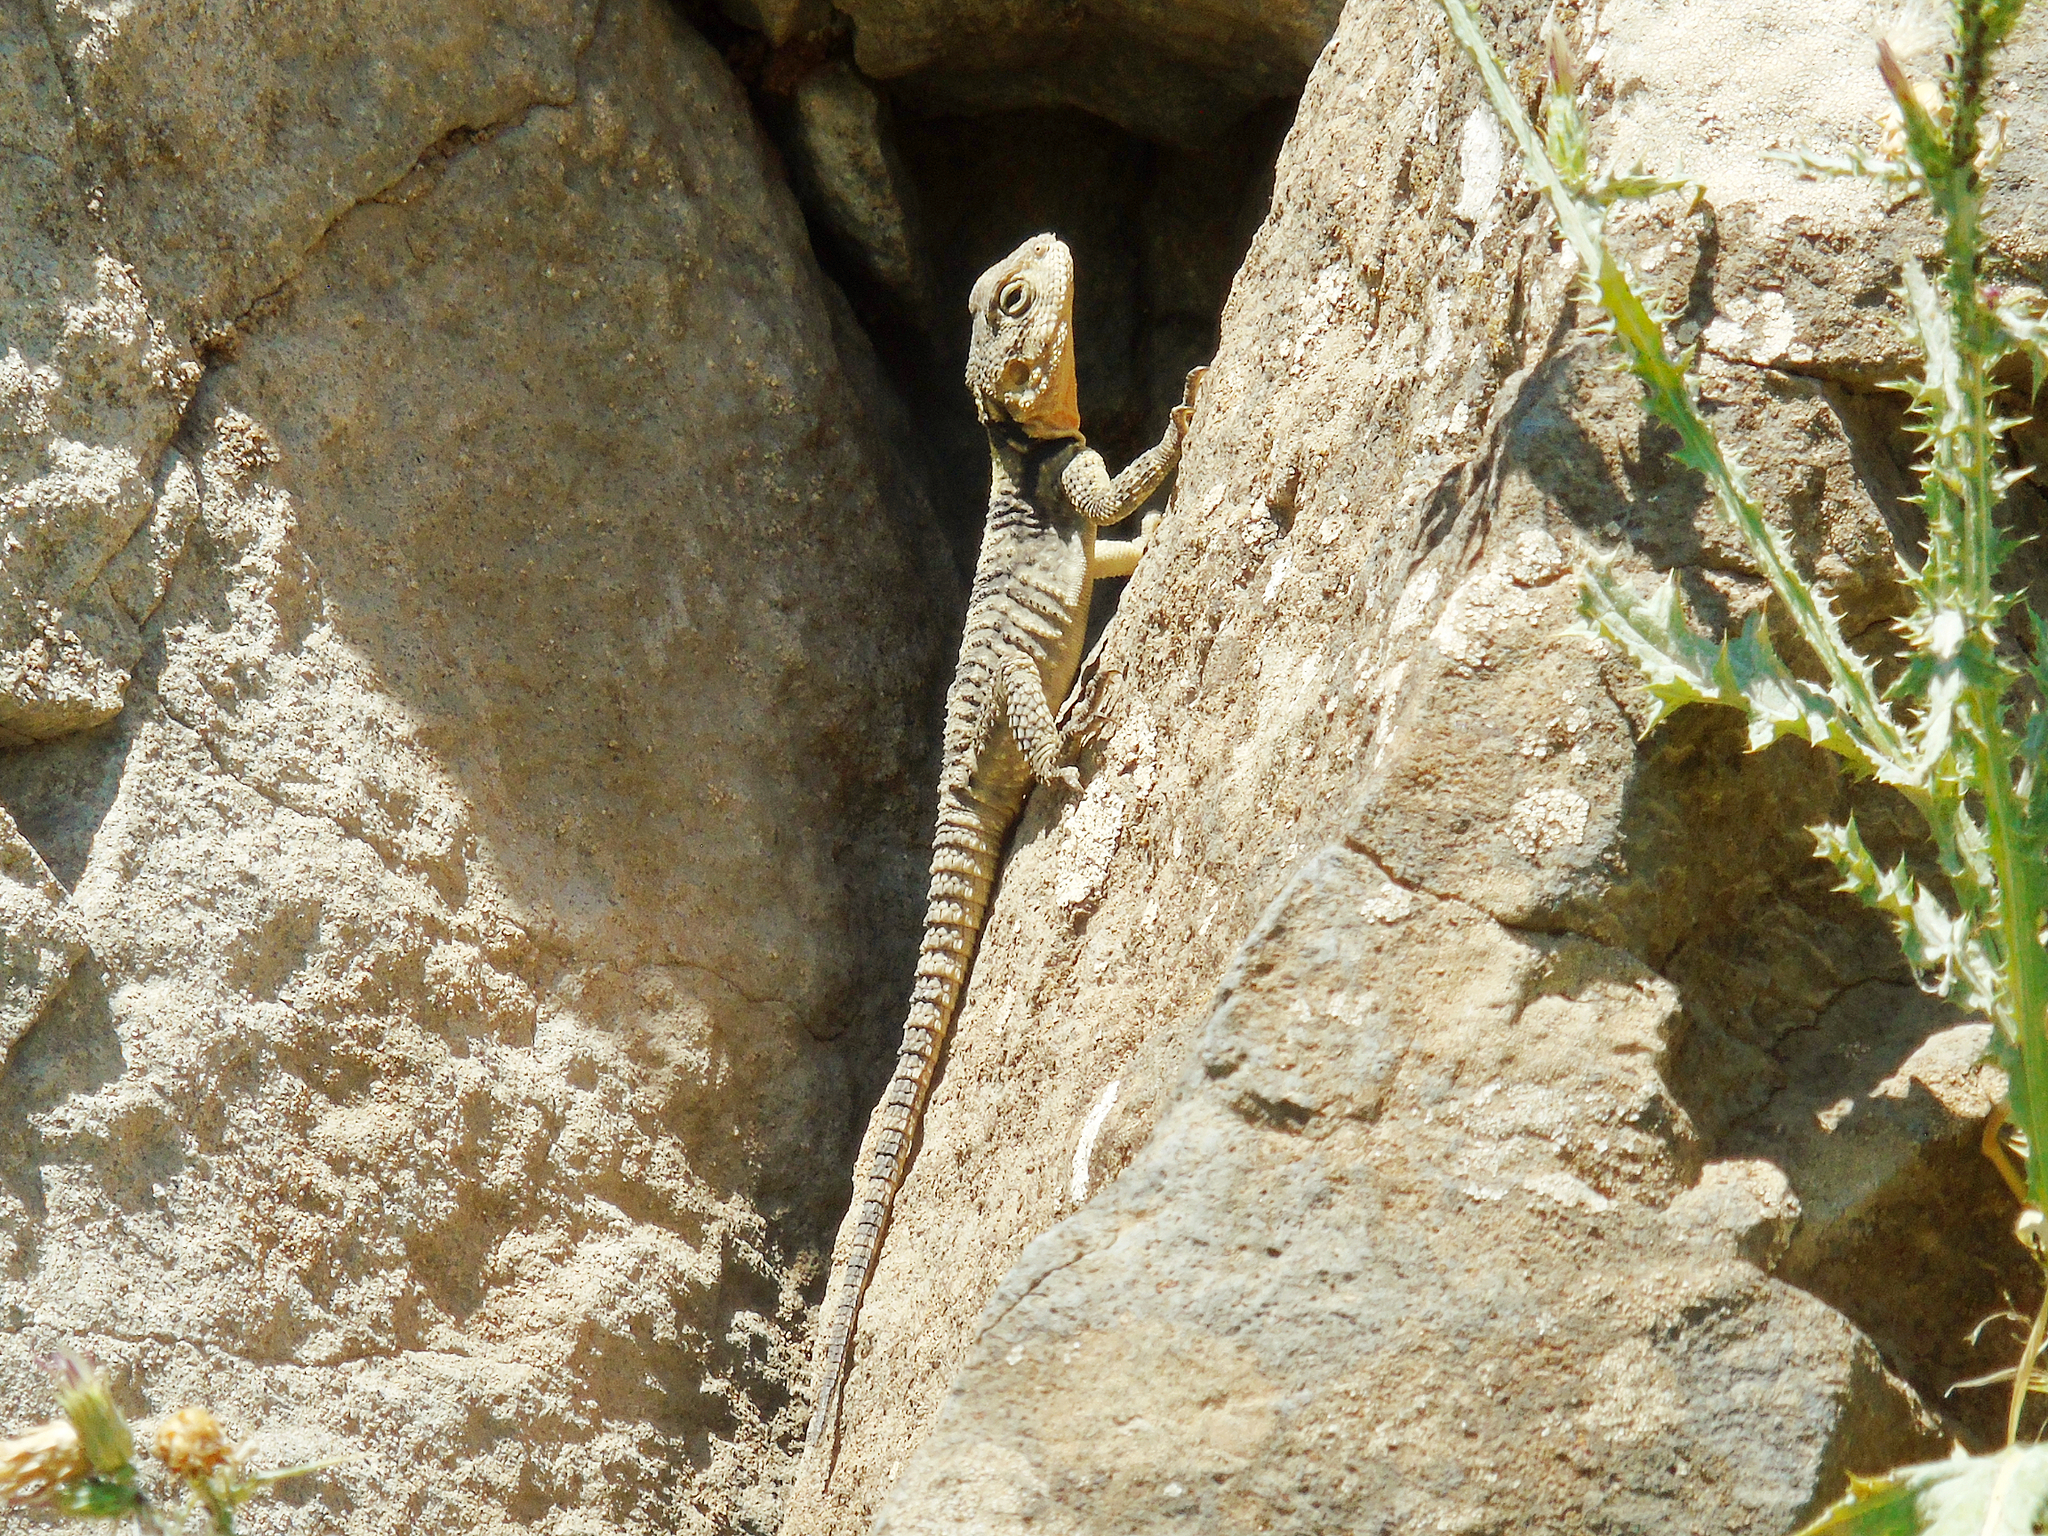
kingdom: Animalia
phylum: Chordata
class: Squamata
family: Agamidae
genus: Stellagama
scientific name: Stellagama stellio
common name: Starred agama
